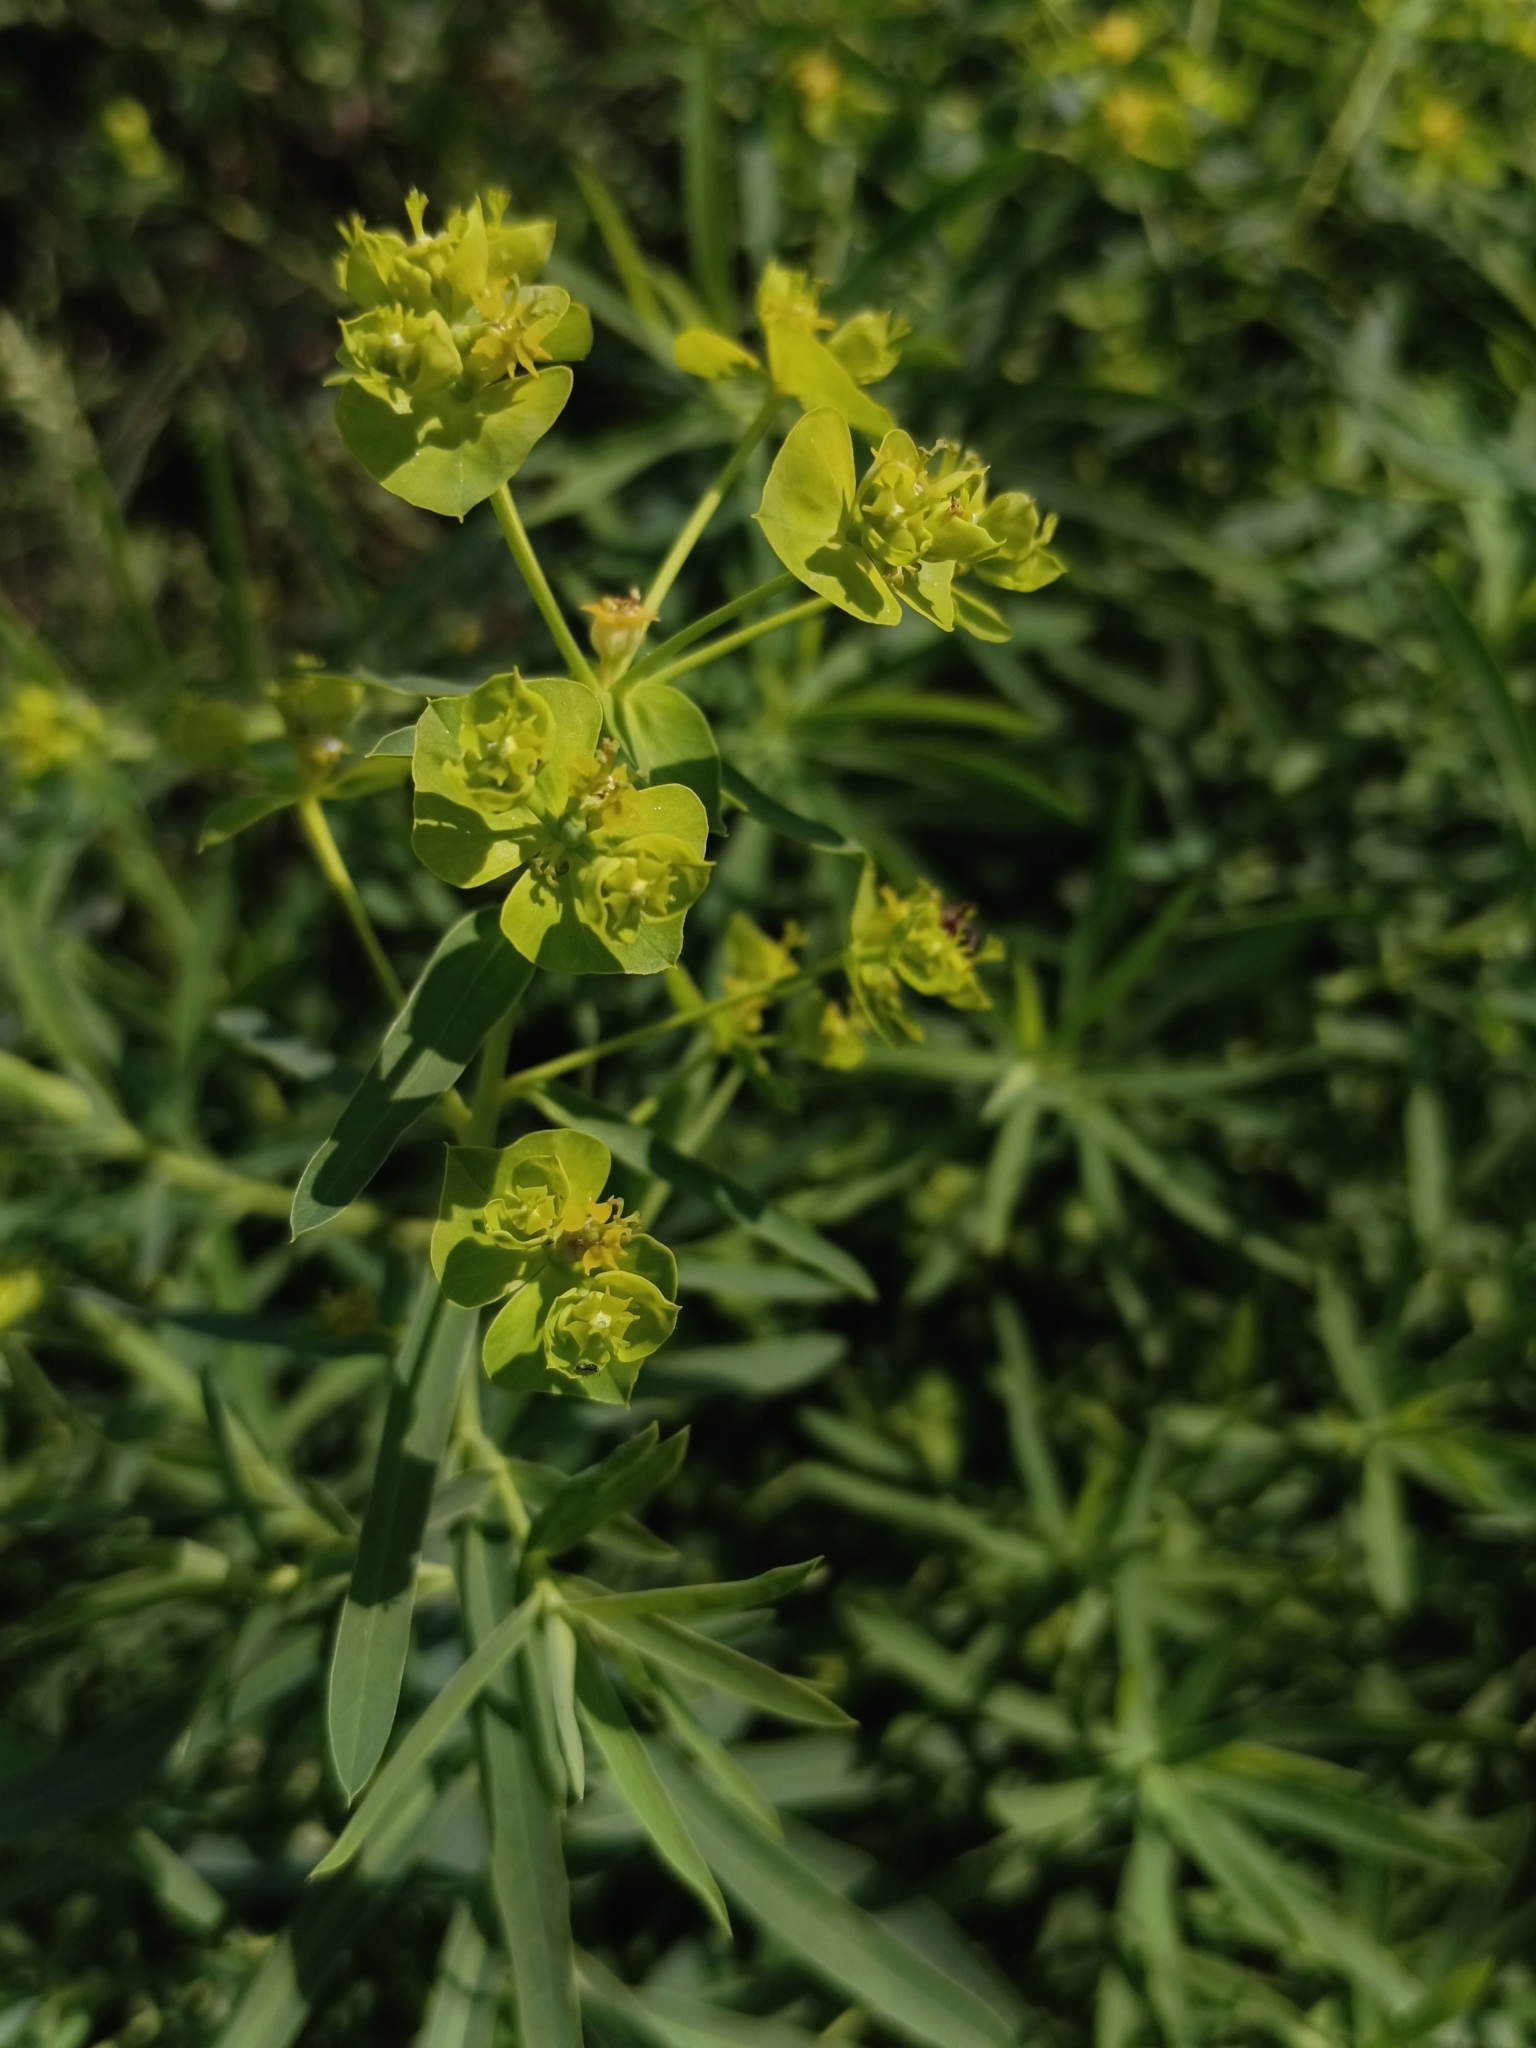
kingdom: Plantae
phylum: Tracheophyta
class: Magnoliopsida
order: Malpighiales
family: Euphorbiaceae
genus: Euphorbia
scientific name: Euphorbia virgata
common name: Leafy spurge
